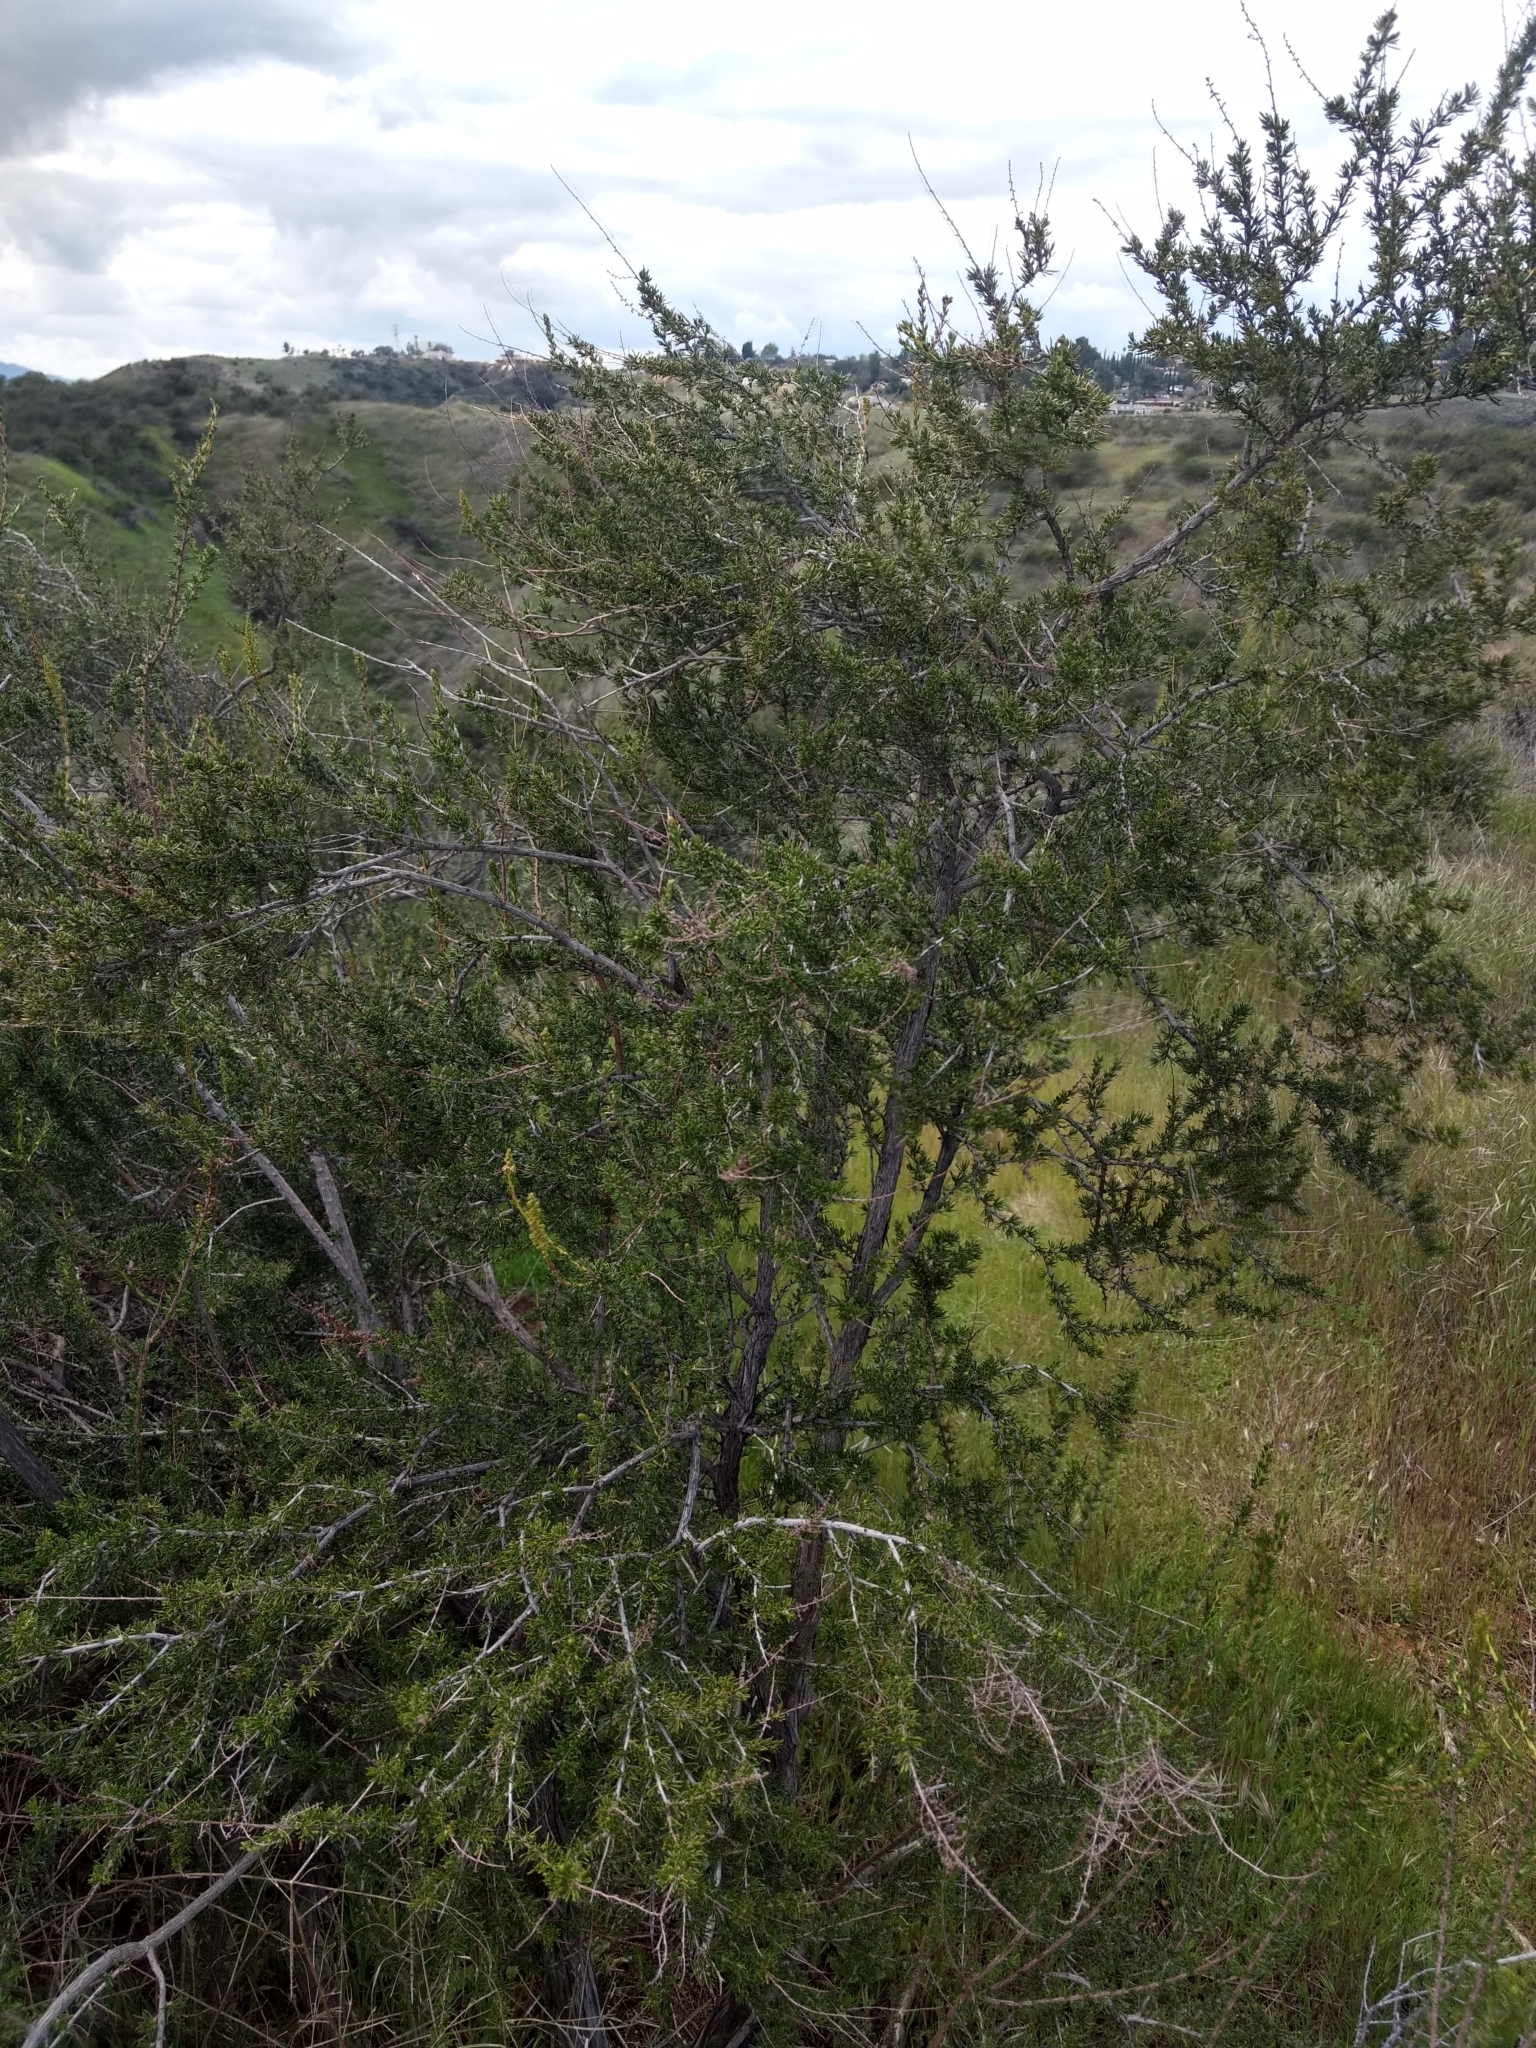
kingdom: Plantae
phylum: Tracheophyta
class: Magnoliopsida
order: Rosales
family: Rosaceae
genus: Adenostoma
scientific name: Adenostoma fasciculatum
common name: Chamise
